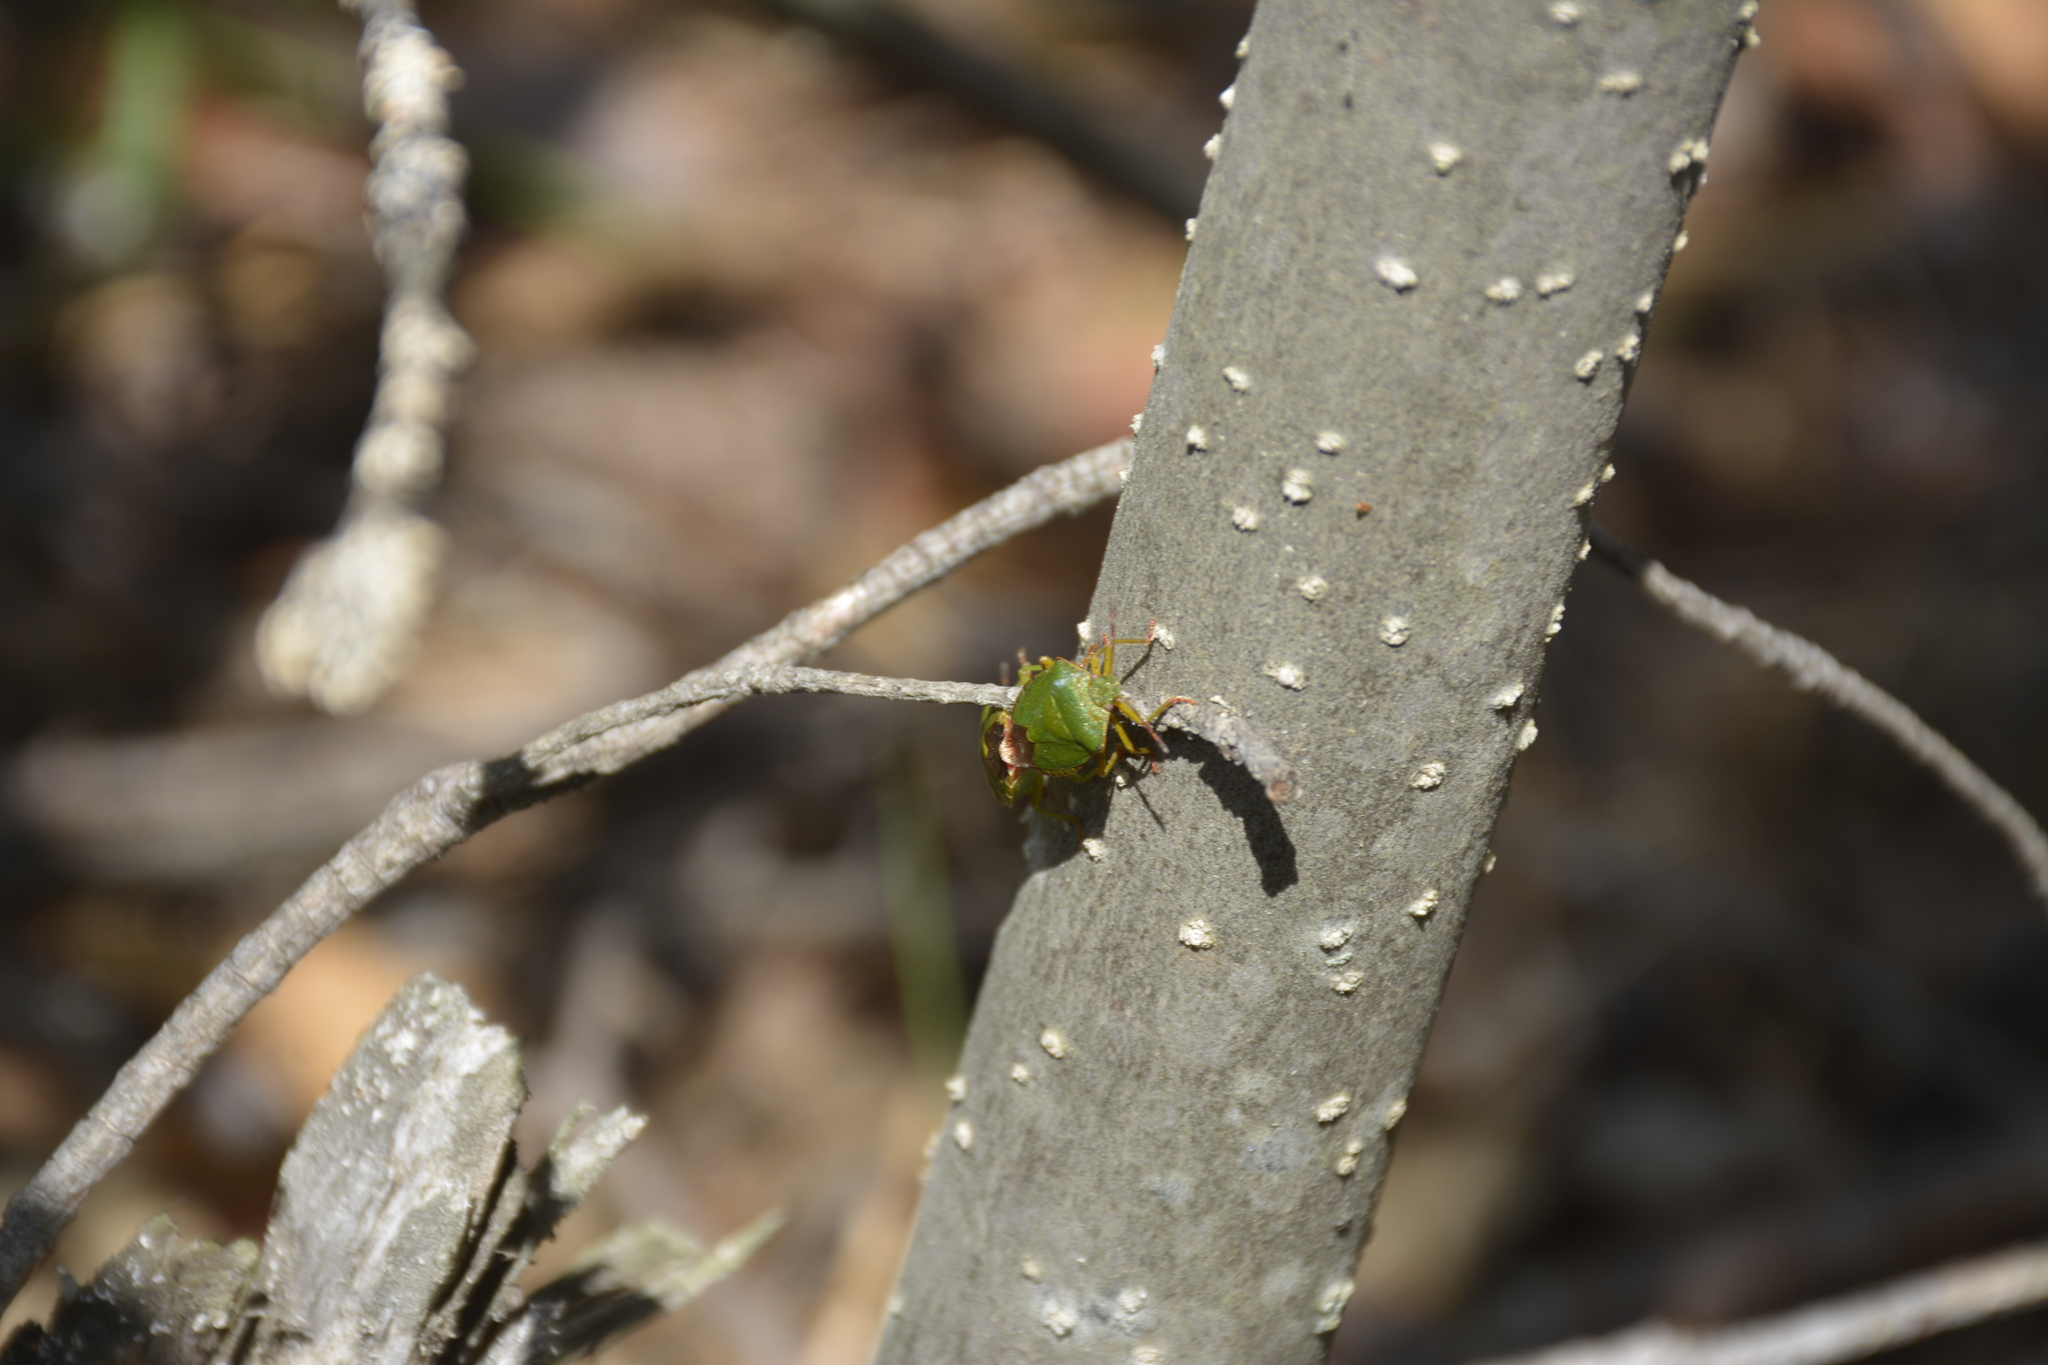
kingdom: Animalia
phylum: Arthropoda
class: Insecta
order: Hemiptera
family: Pentatomidae
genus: Palomena
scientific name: Palomena prasina
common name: Green shieldbug
